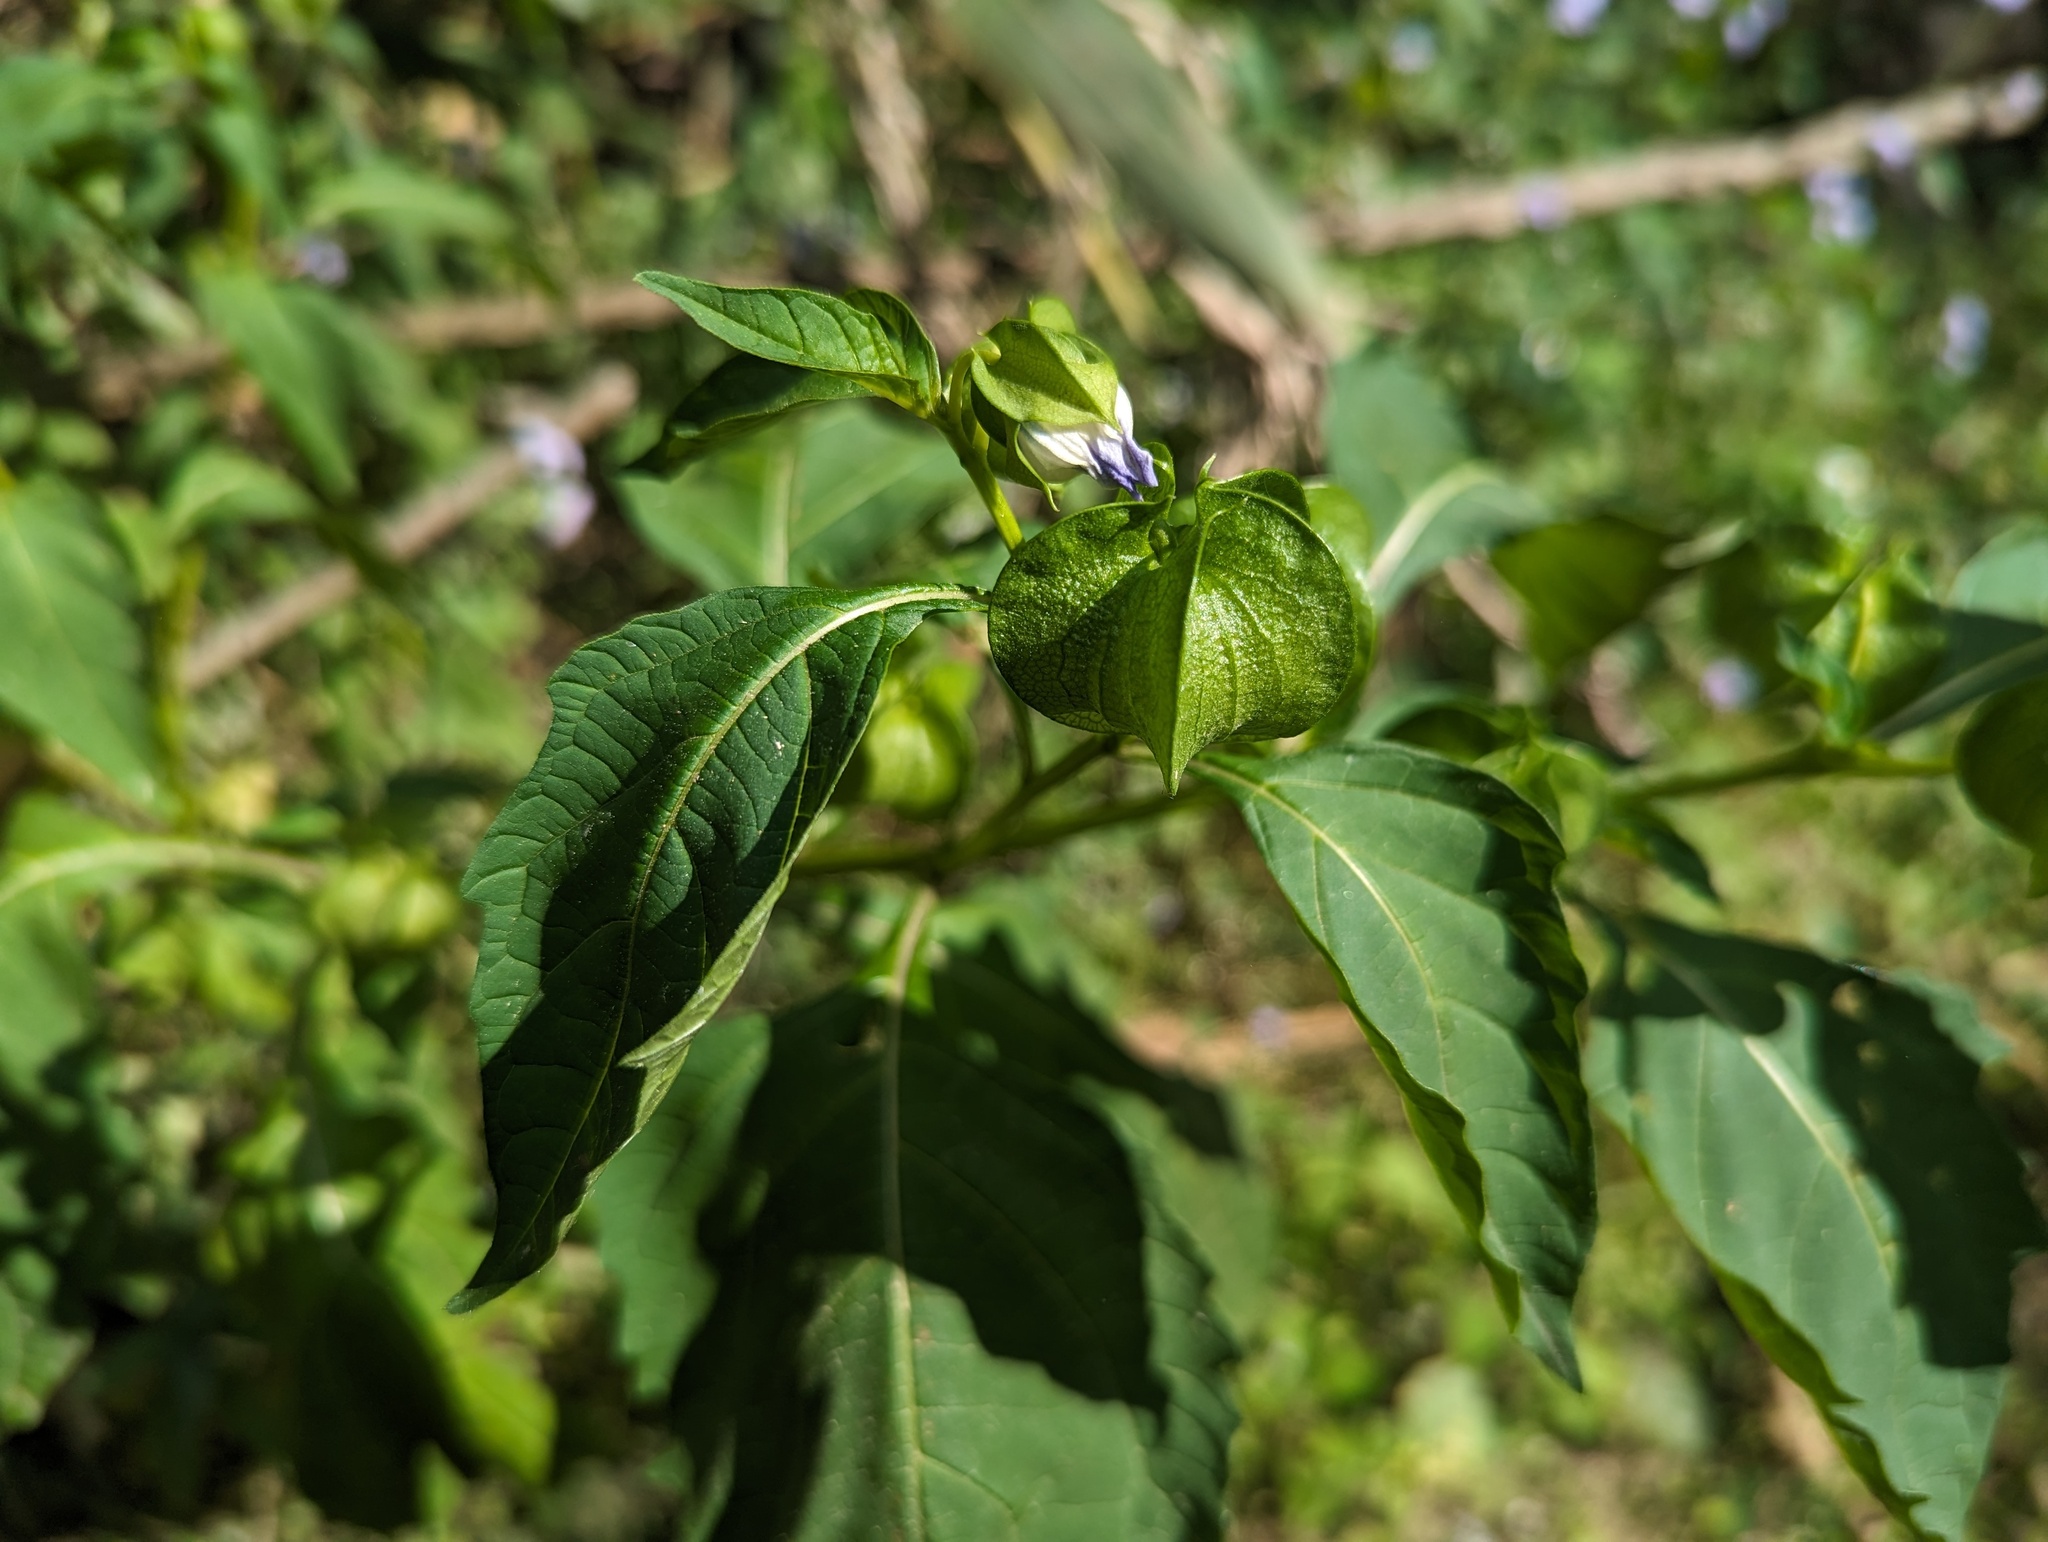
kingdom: Plantae
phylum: Tracheophyta
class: Magnoliopsida
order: Solanales
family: Solanaceae
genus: Nicandra
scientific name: Nicandra physalodes
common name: Apple-of-peru
